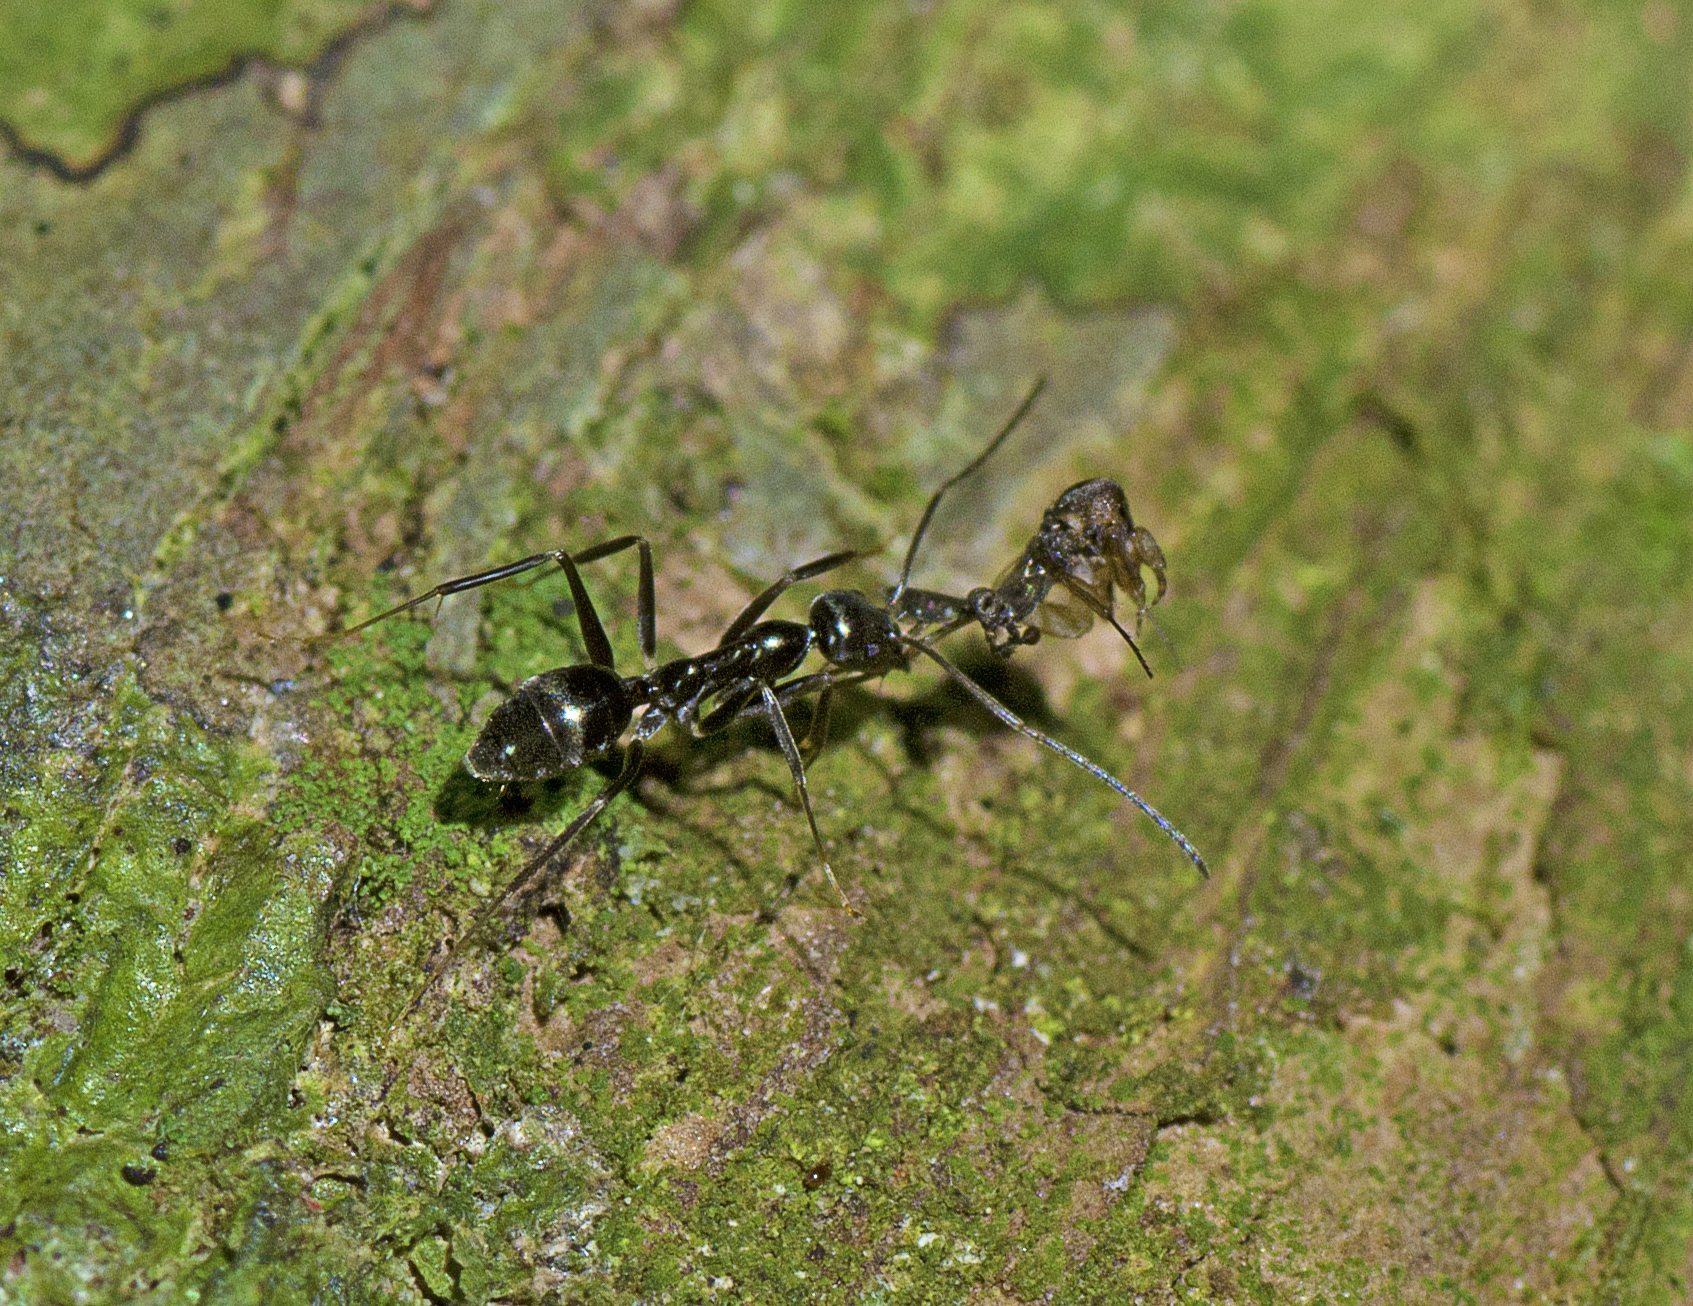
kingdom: Animalia
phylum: Arthropoda
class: Insecta
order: Hymenoptera
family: Formicidae
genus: Leptomyrmex
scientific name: Leptomyrmex burwelli
